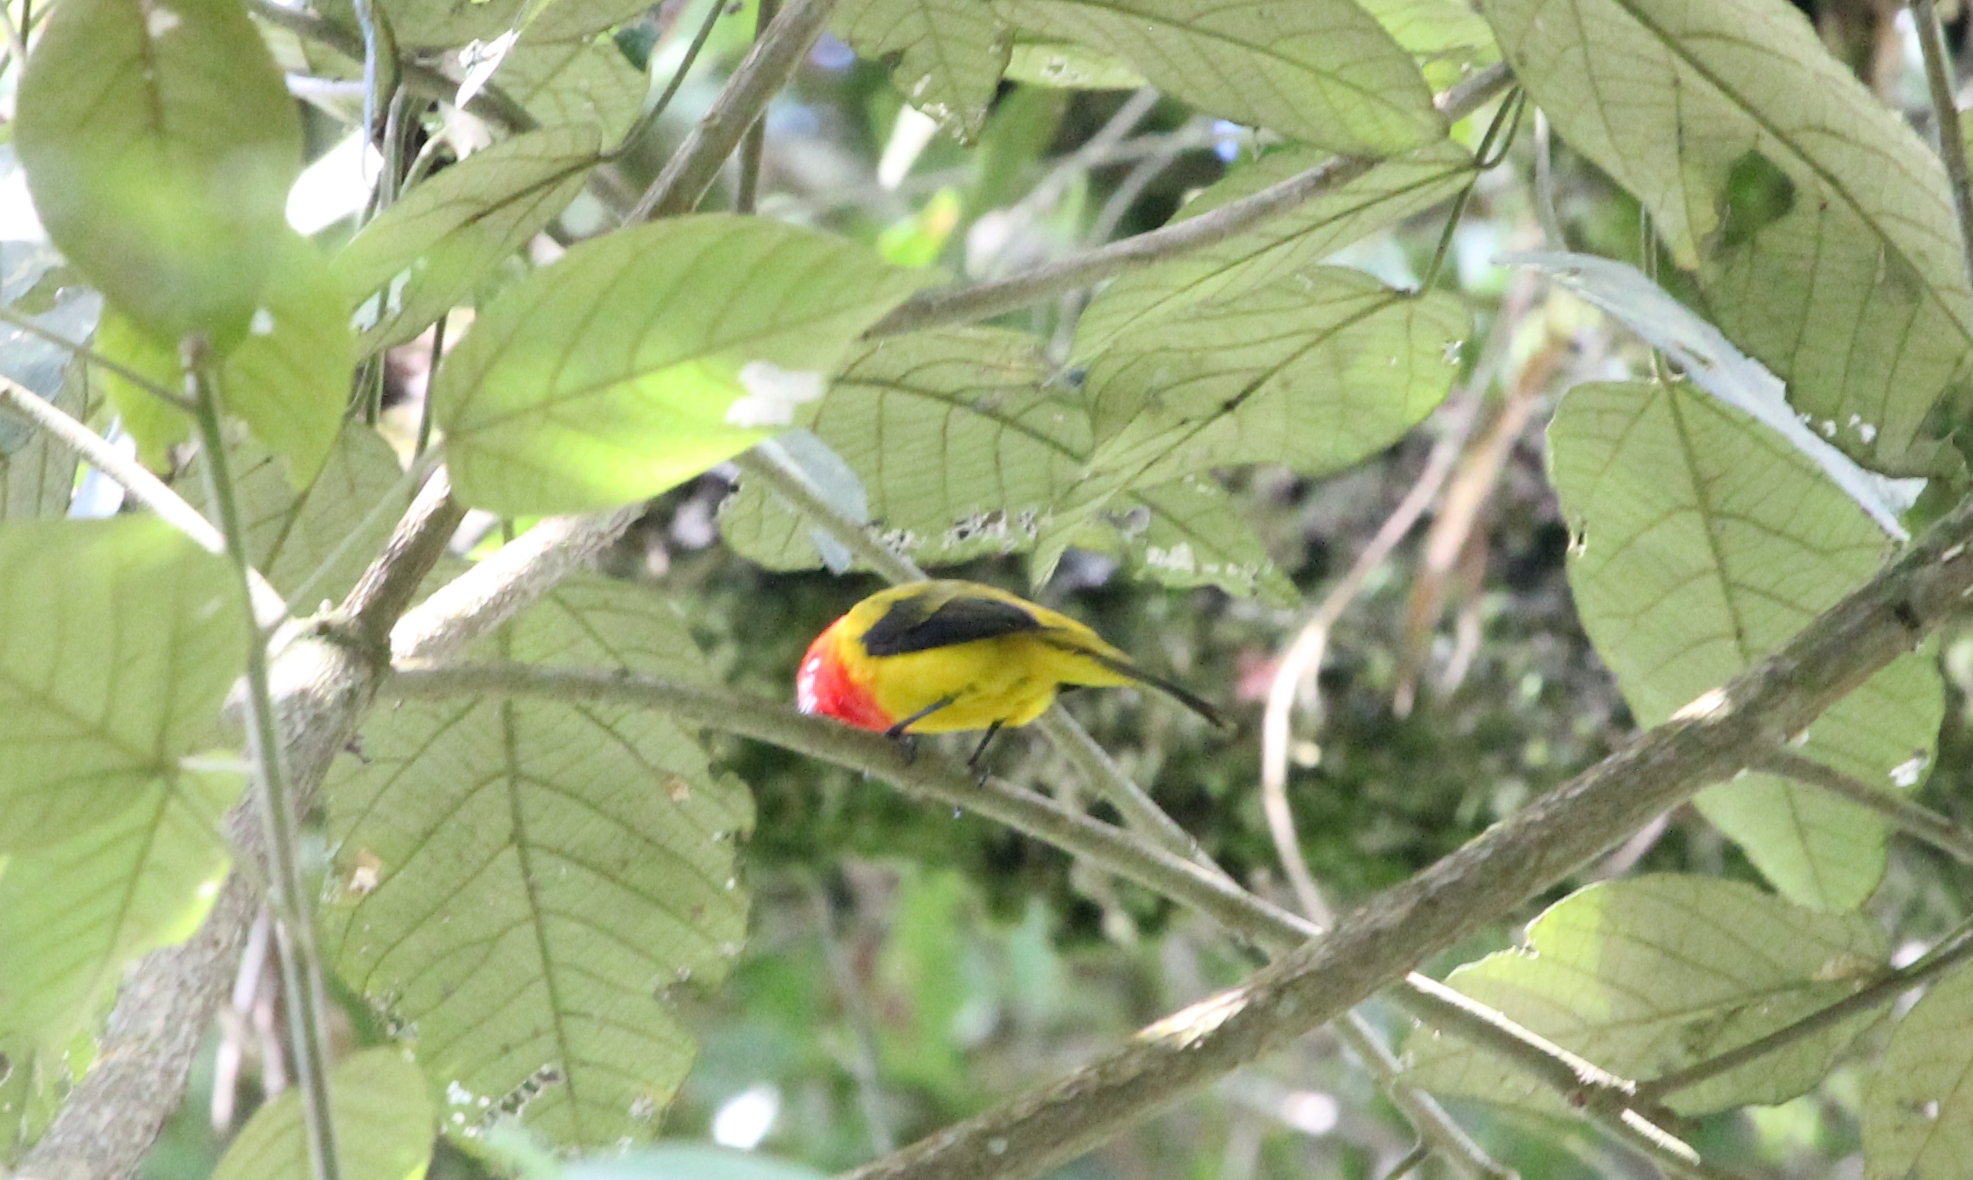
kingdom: Animalia
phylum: Chordata
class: Aves
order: Passeriformes
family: Cardinalidae
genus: Piranga
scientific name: Piranga rubriceps
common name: Red-hooded tanager
